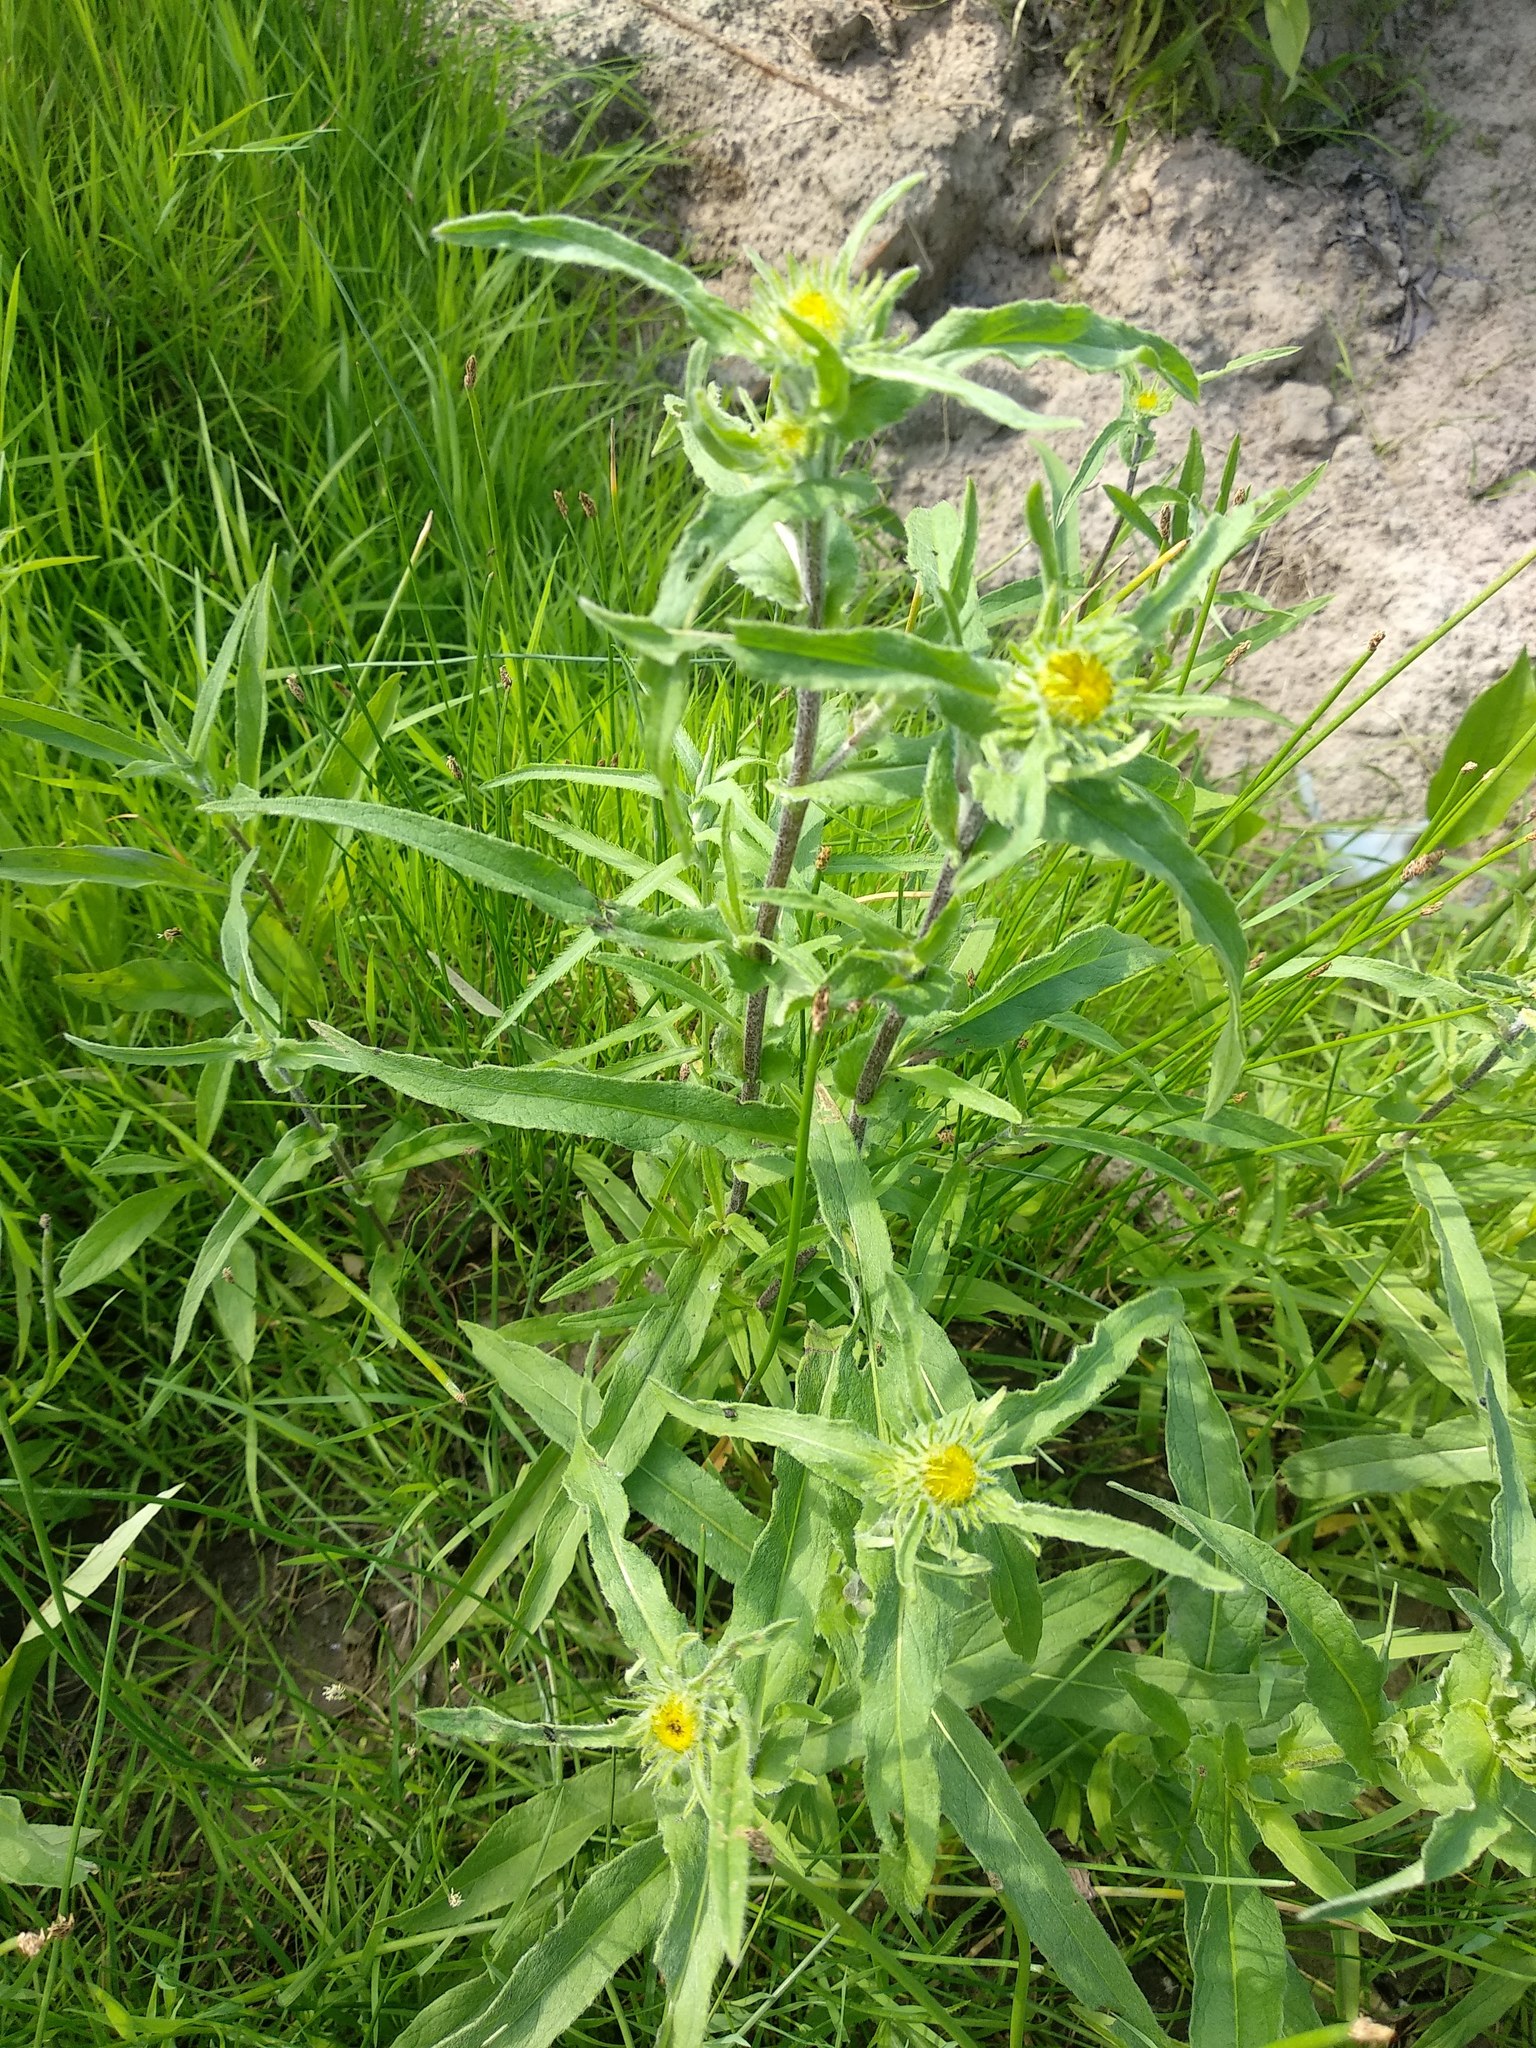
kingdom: Plantae
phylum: Tracheophyta
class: Magnoliopsida
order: Asterales
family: Asteraceae
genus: Pentanema
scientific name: Pentanema britannicum
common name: British elecampane
